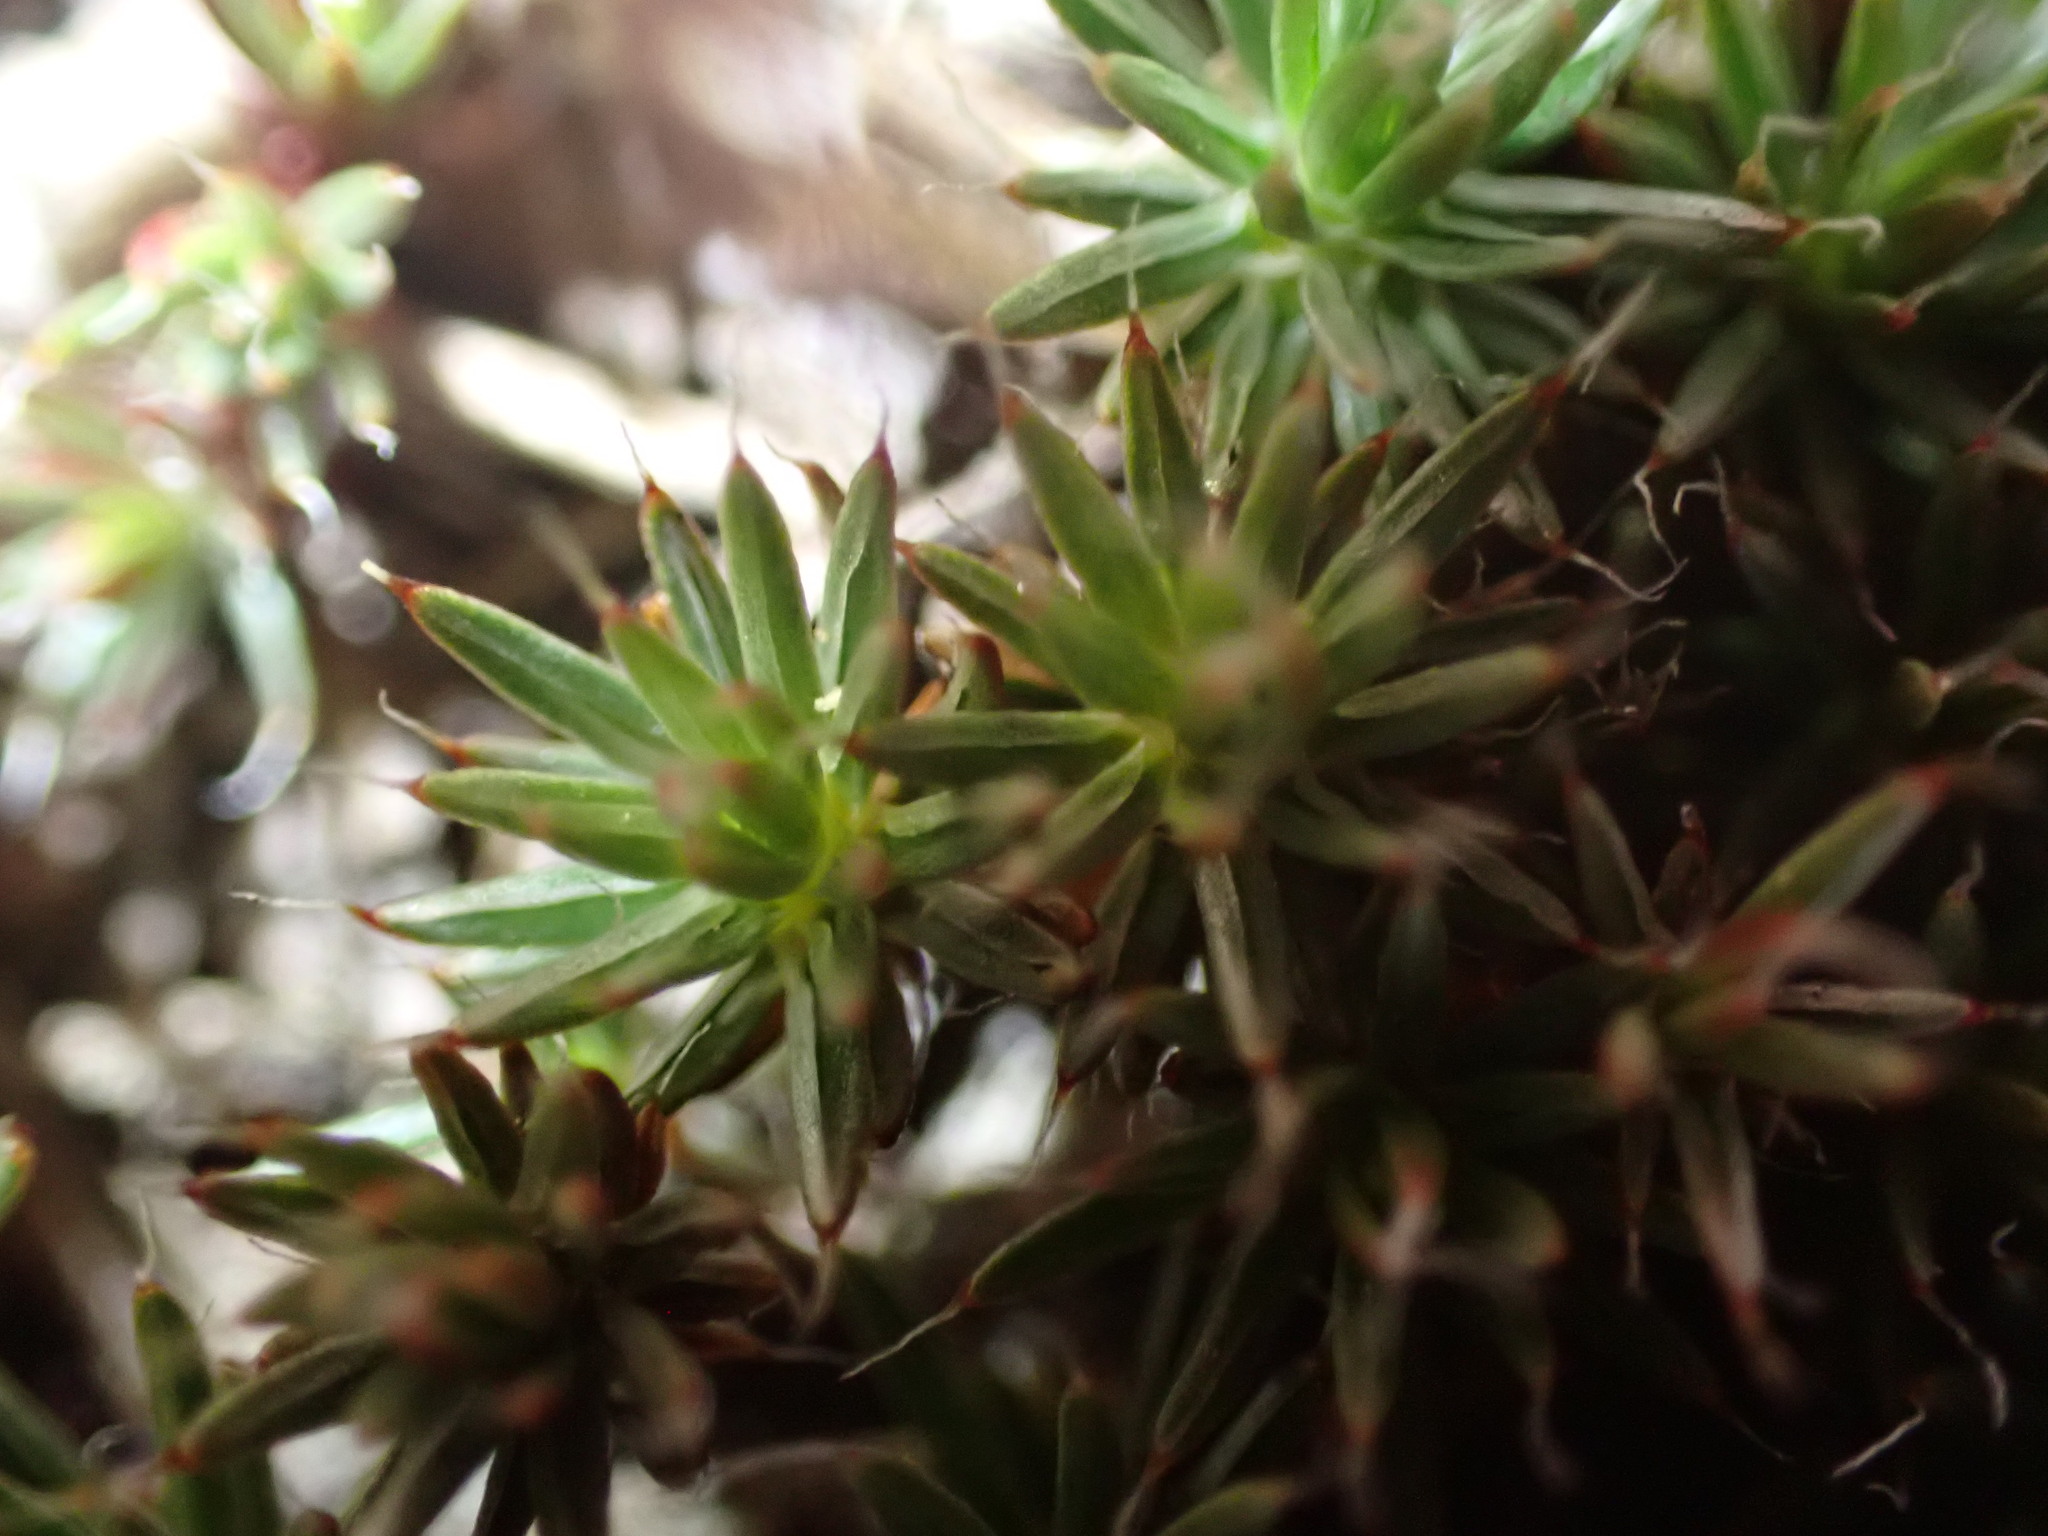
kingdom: Plantae
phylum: Bryophyta
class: Polytrichopsida
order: Polytrichales
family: Polytrichaceae
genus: Polytrichum
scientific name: Polytrichum piliferum
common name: Bristly haircap
